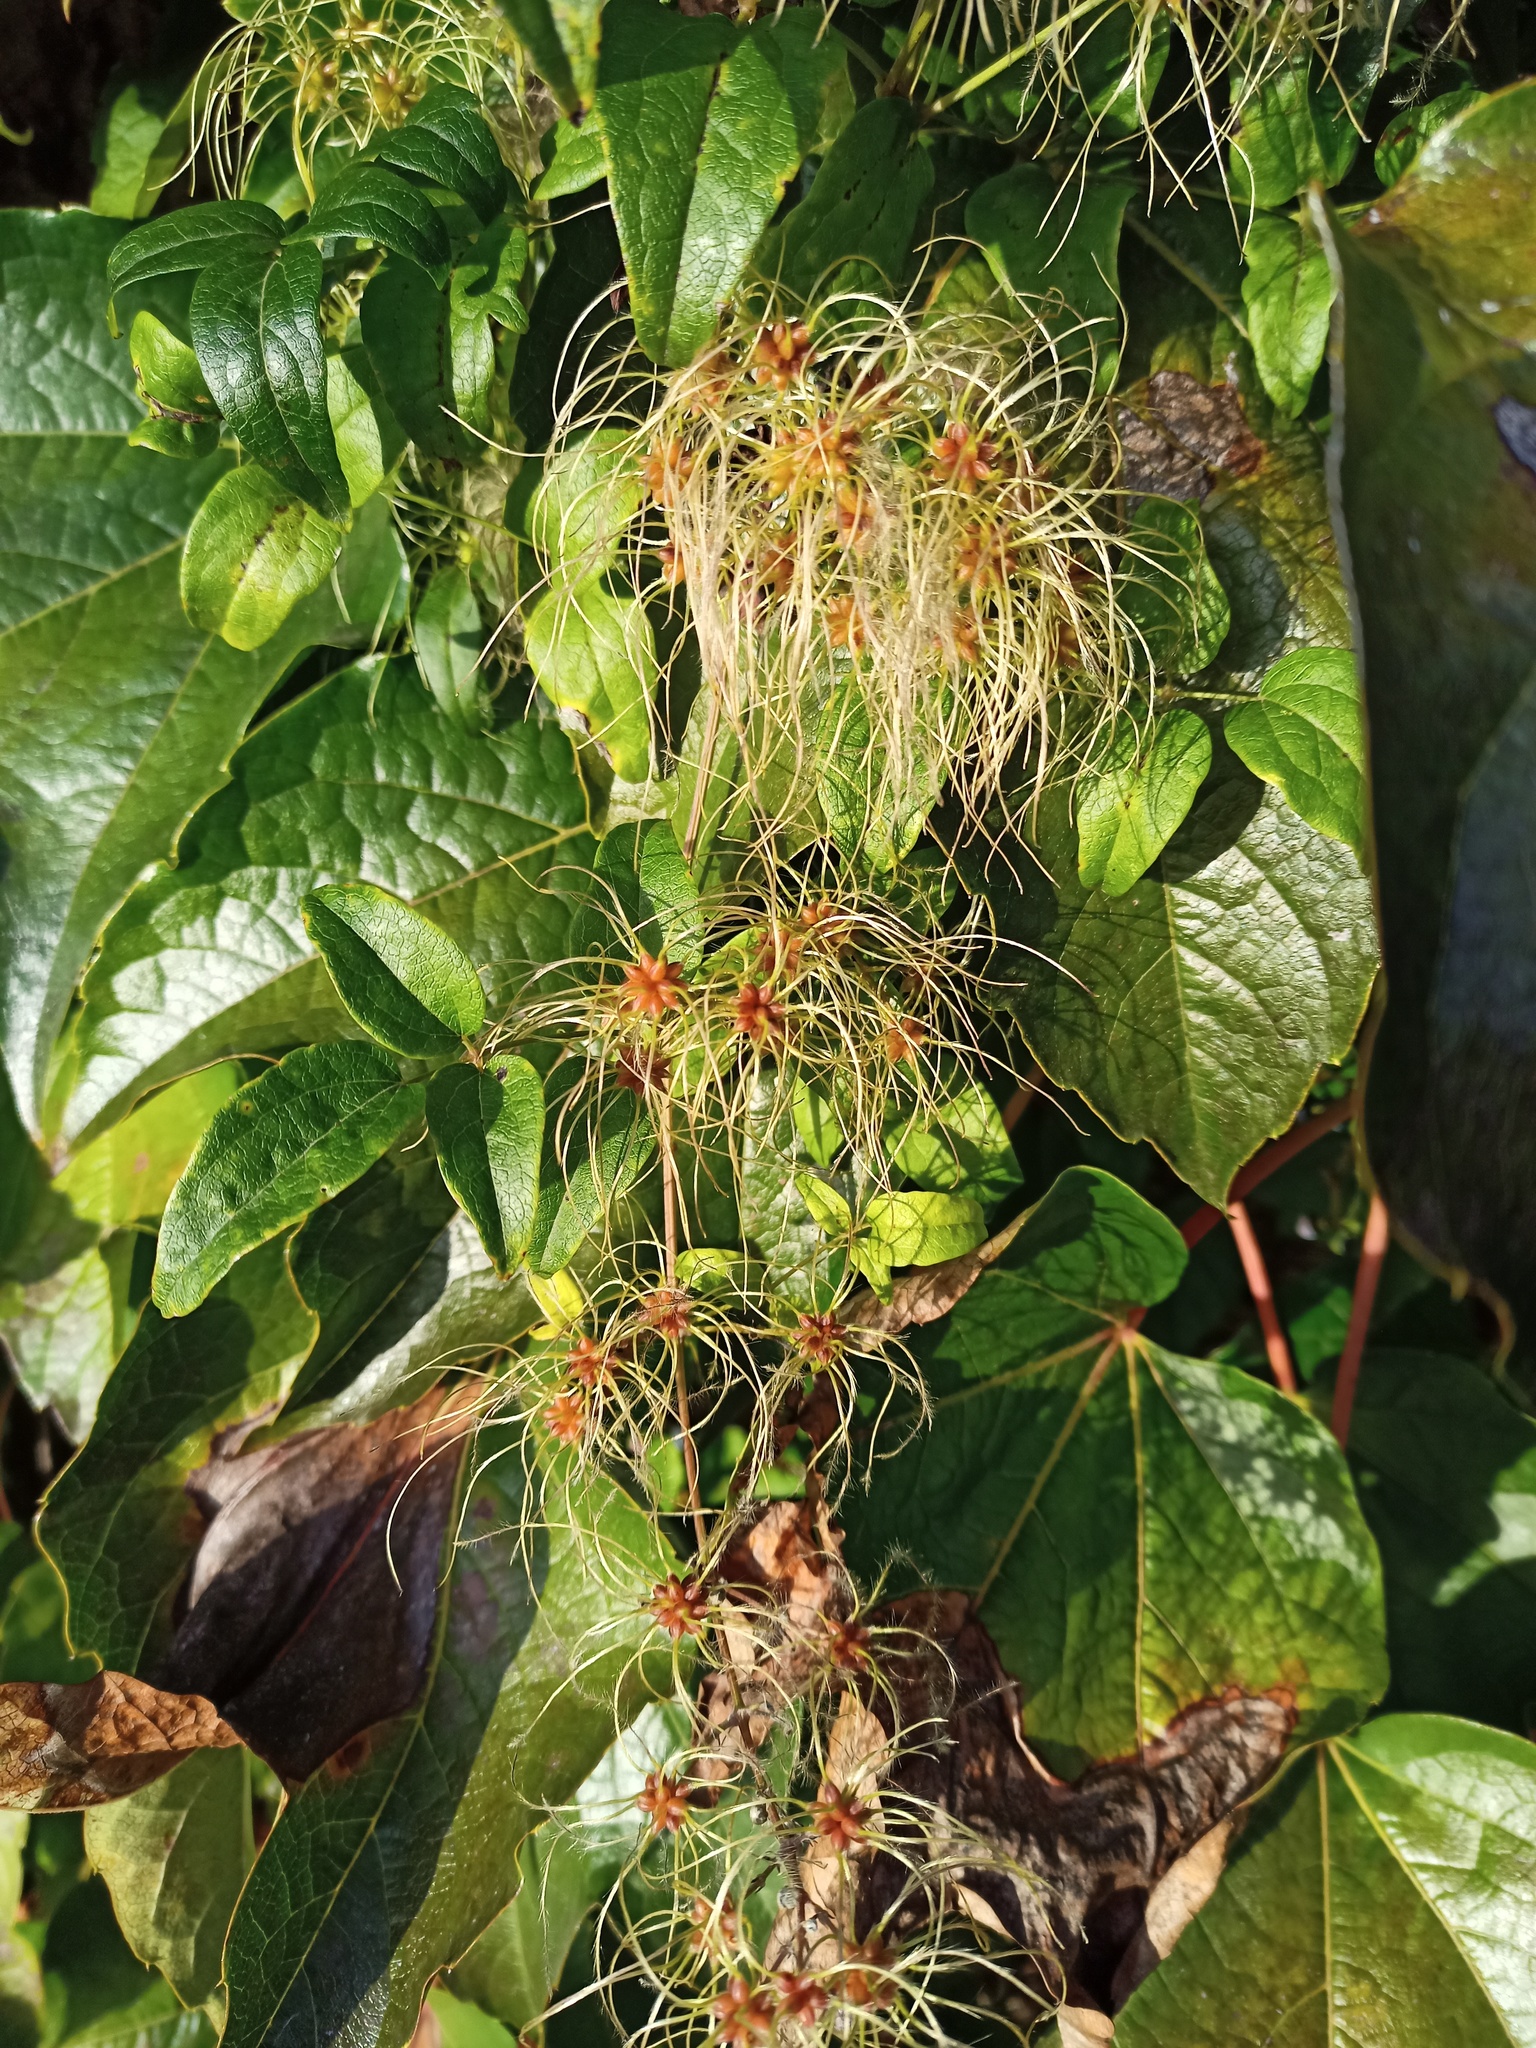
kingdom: Plantae
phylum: Tracheophyta
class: Magnoliopsida
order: Ranunculales
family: Ranunculaceae
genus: Clematis
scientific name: Clematis vitalba
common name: Evergreen clematis
